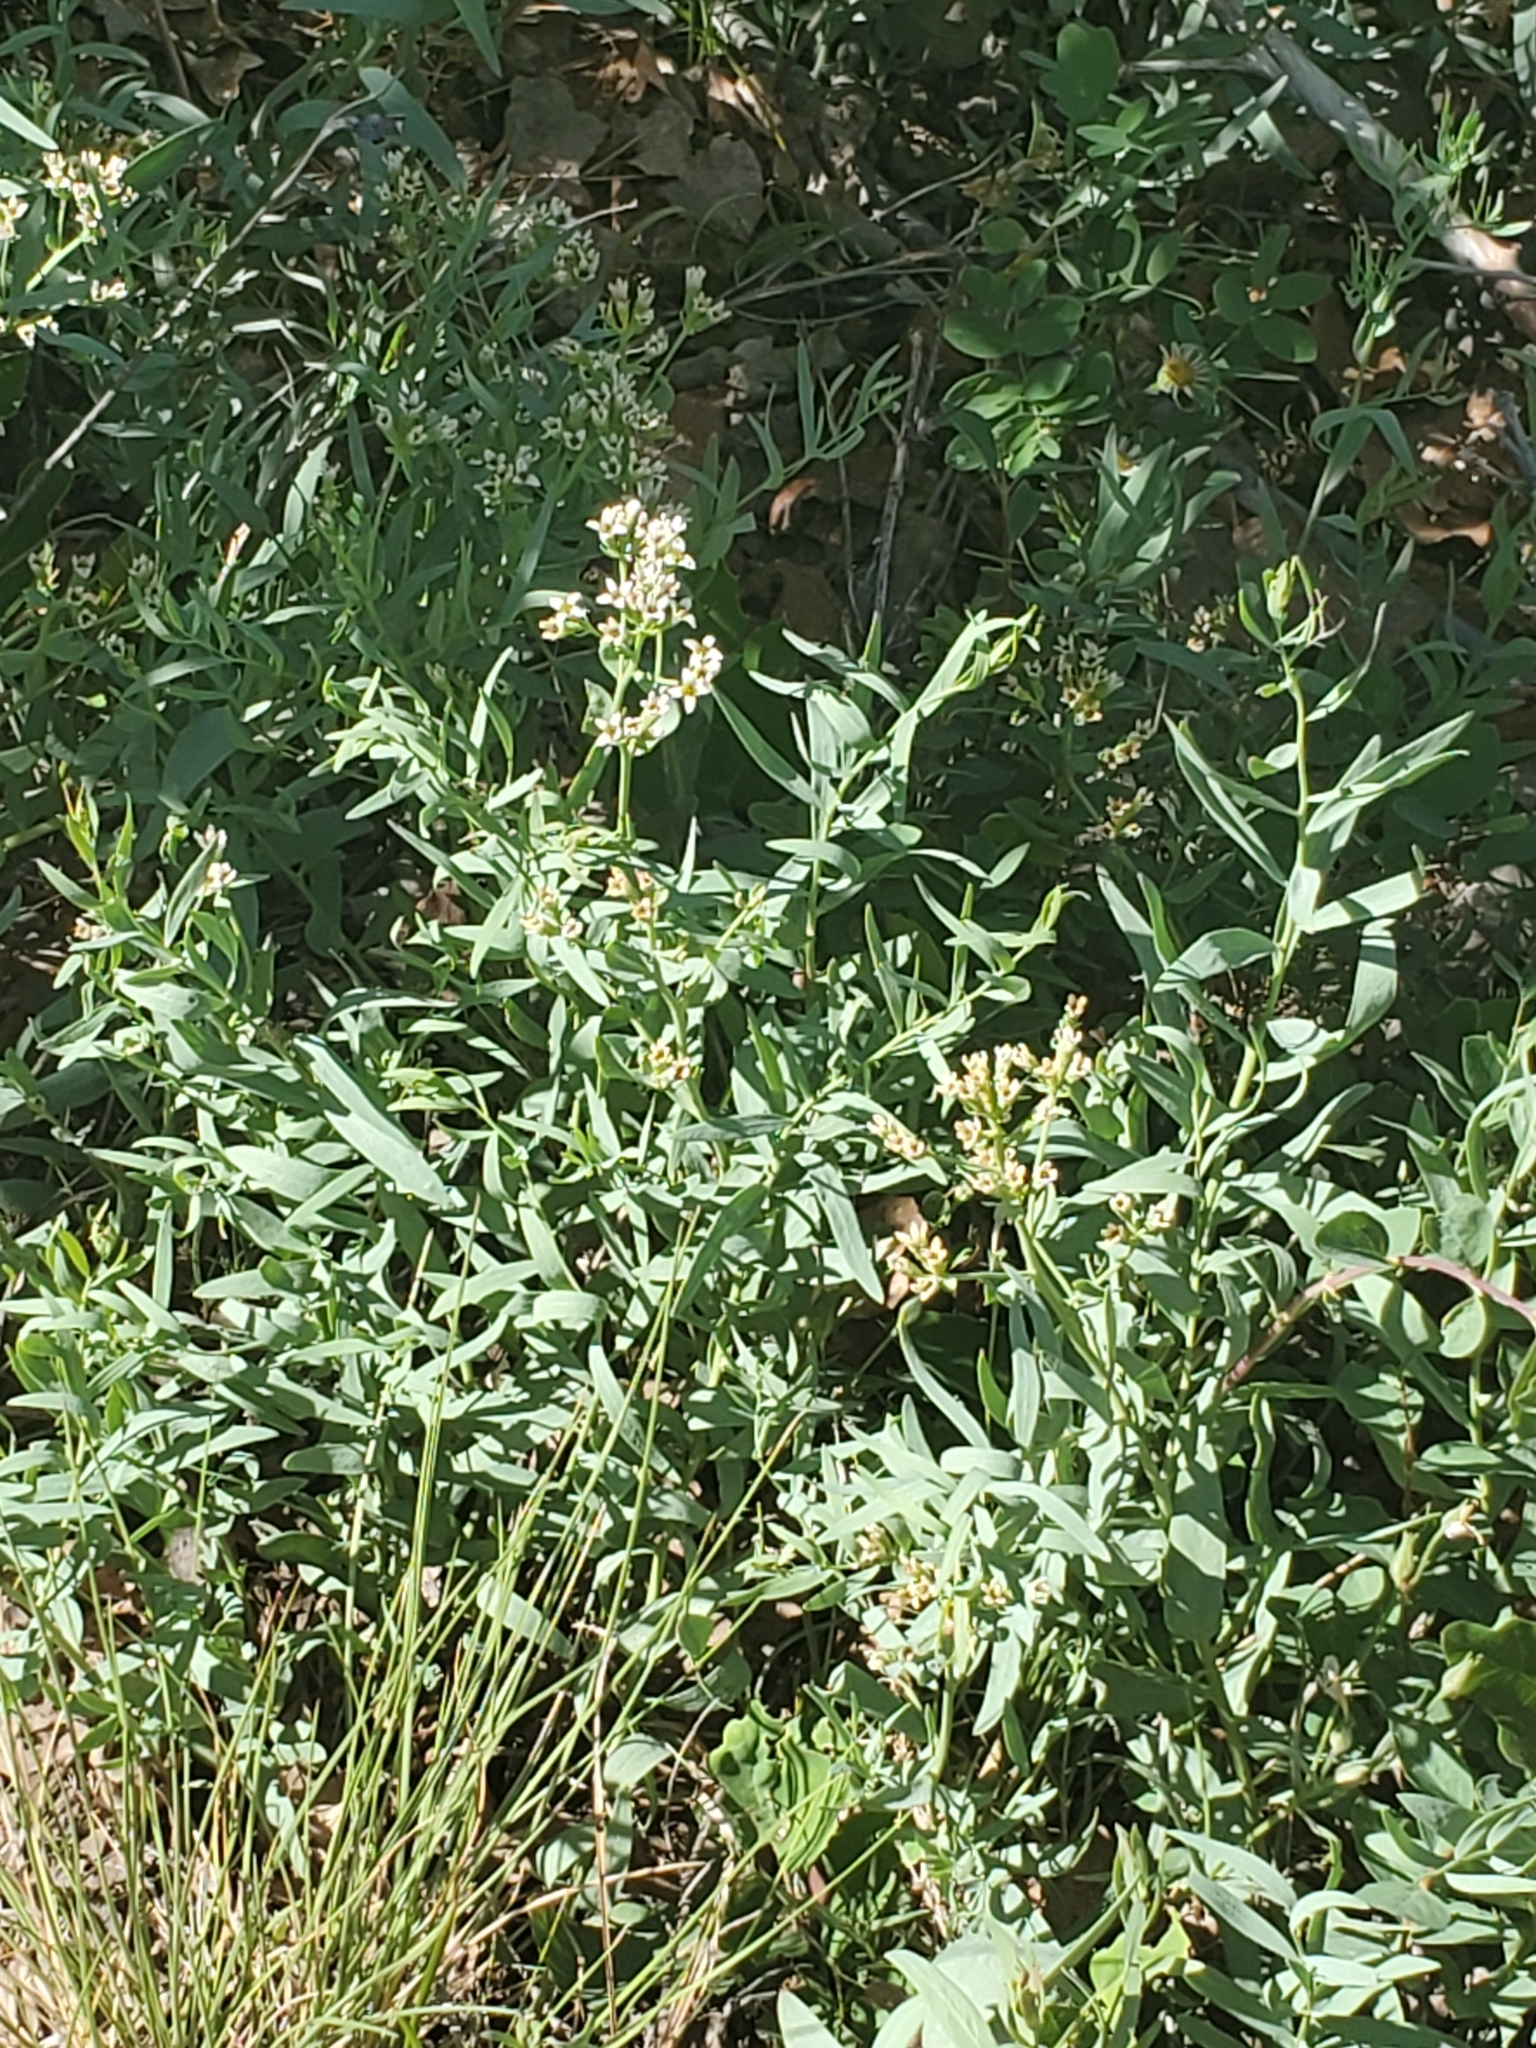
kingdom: Plantae
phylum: Tracheophyta
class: Magnoliopsida
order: Santalales
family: Comandraceae
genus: Comandra
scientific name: Comandra umbellata
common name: Bastard toadflax
